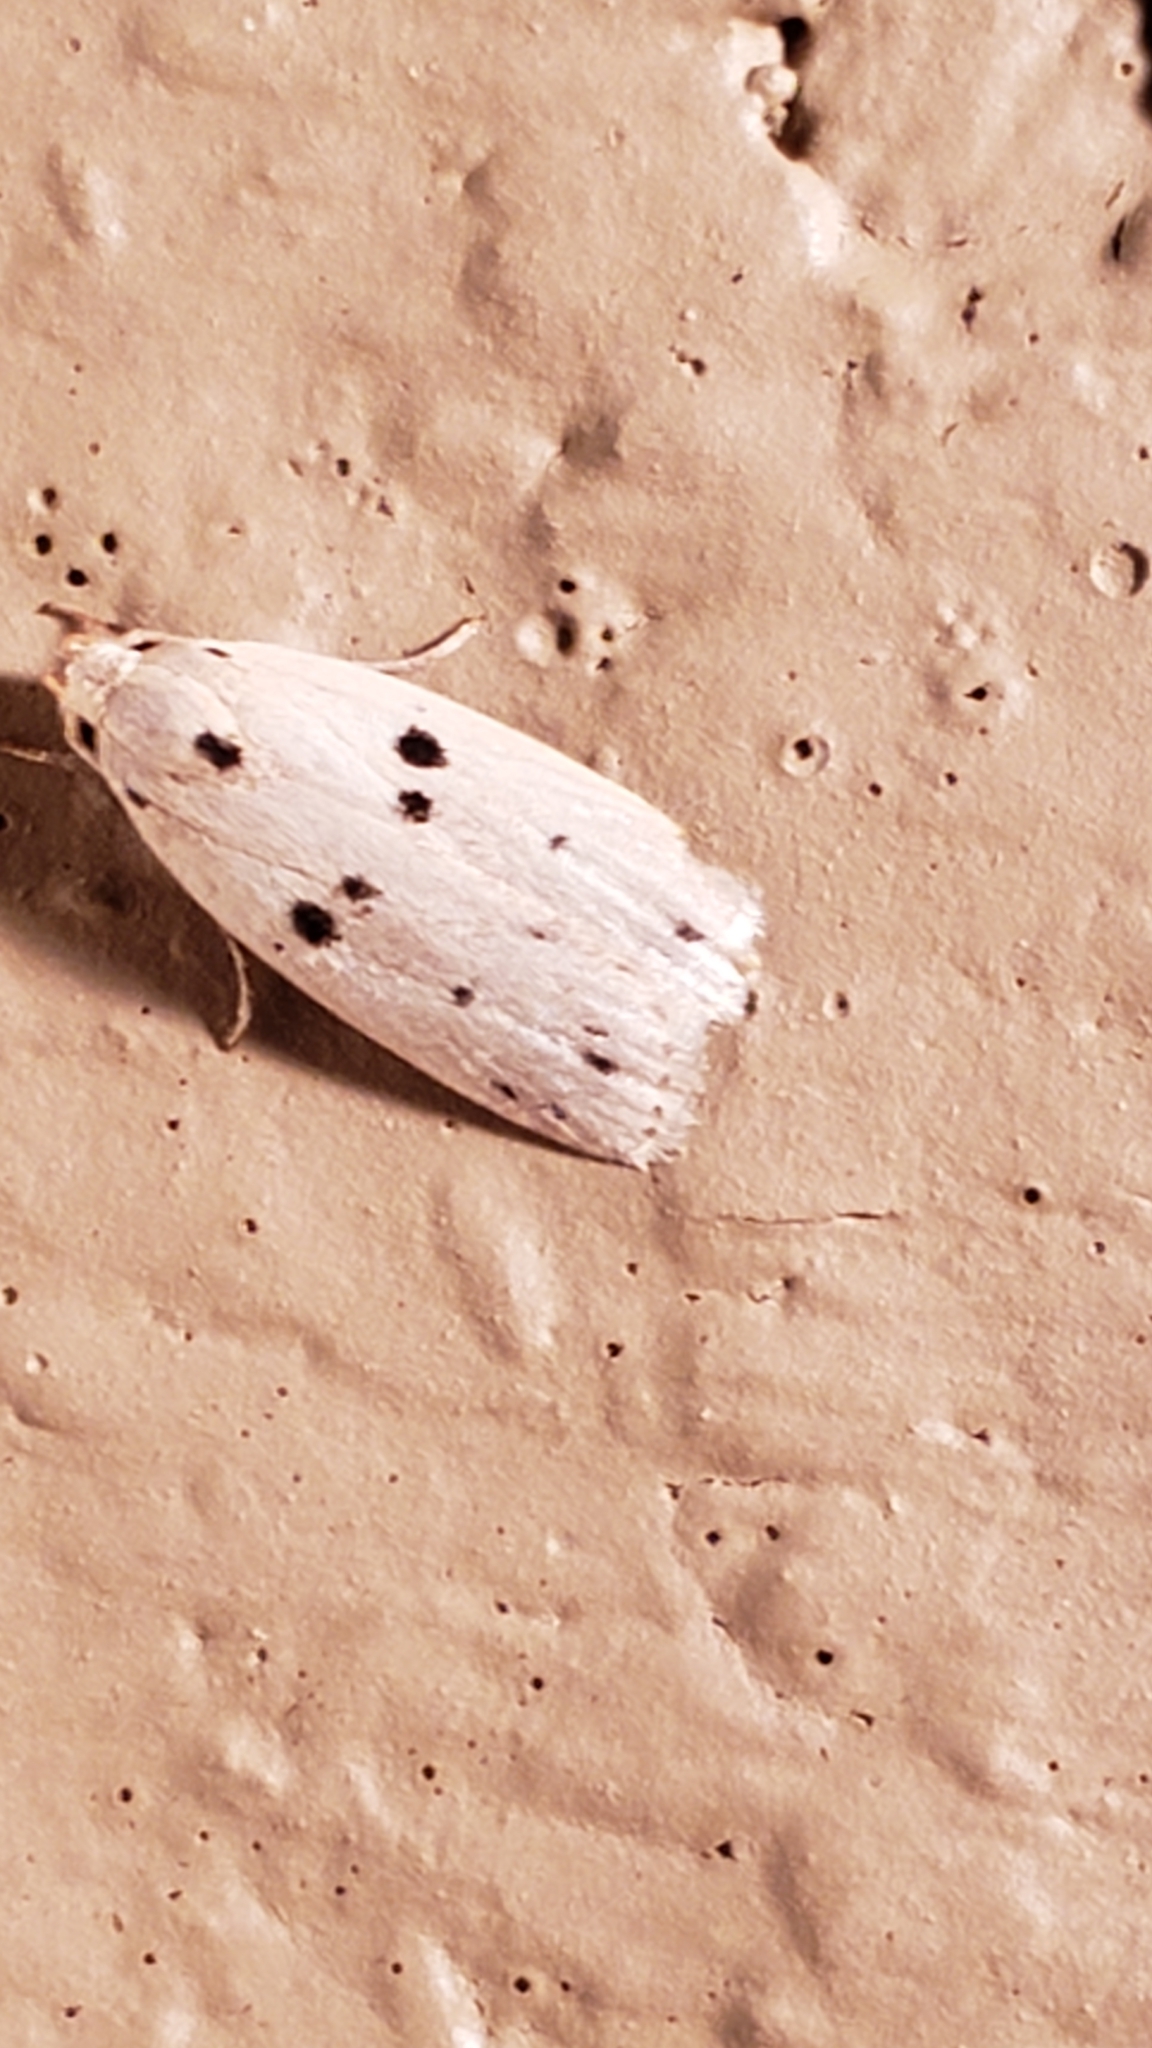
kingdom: Animalia
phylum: Arthropoda
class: Insecta
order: Lepidoptera
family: Peleopodidae
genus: Scythropiodes
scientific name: Scythropiodes issikii
